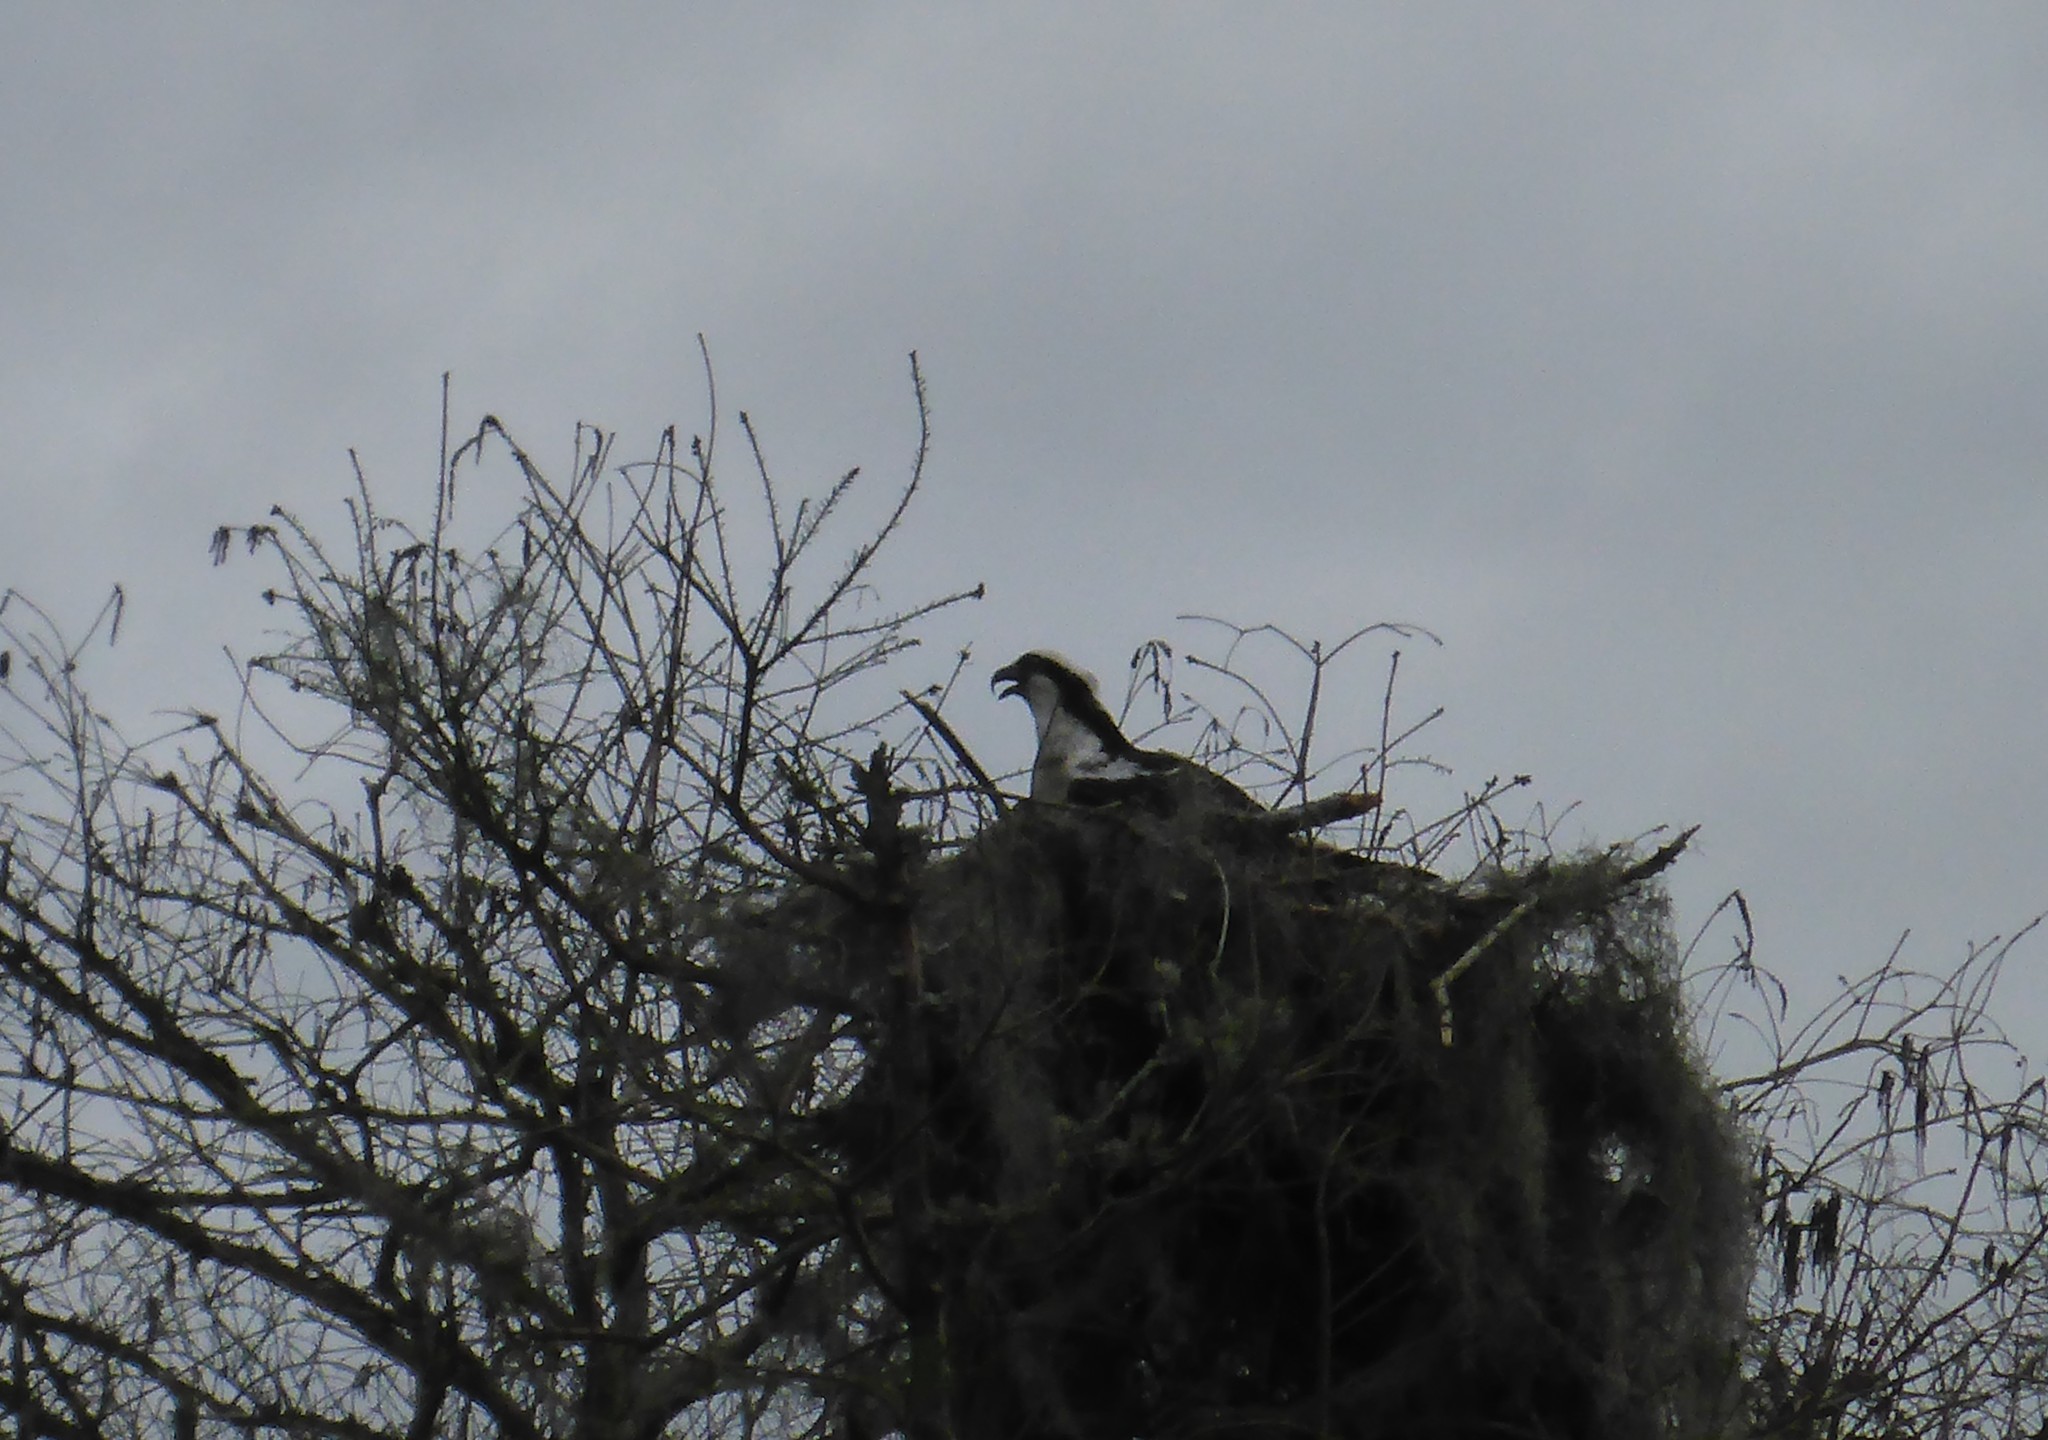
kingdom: Animalia
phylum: Chordata
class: Aves
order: Accipitriformes
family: Pandionidae
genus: Pandion
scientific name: Pandion haliaetus
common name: Osprey
